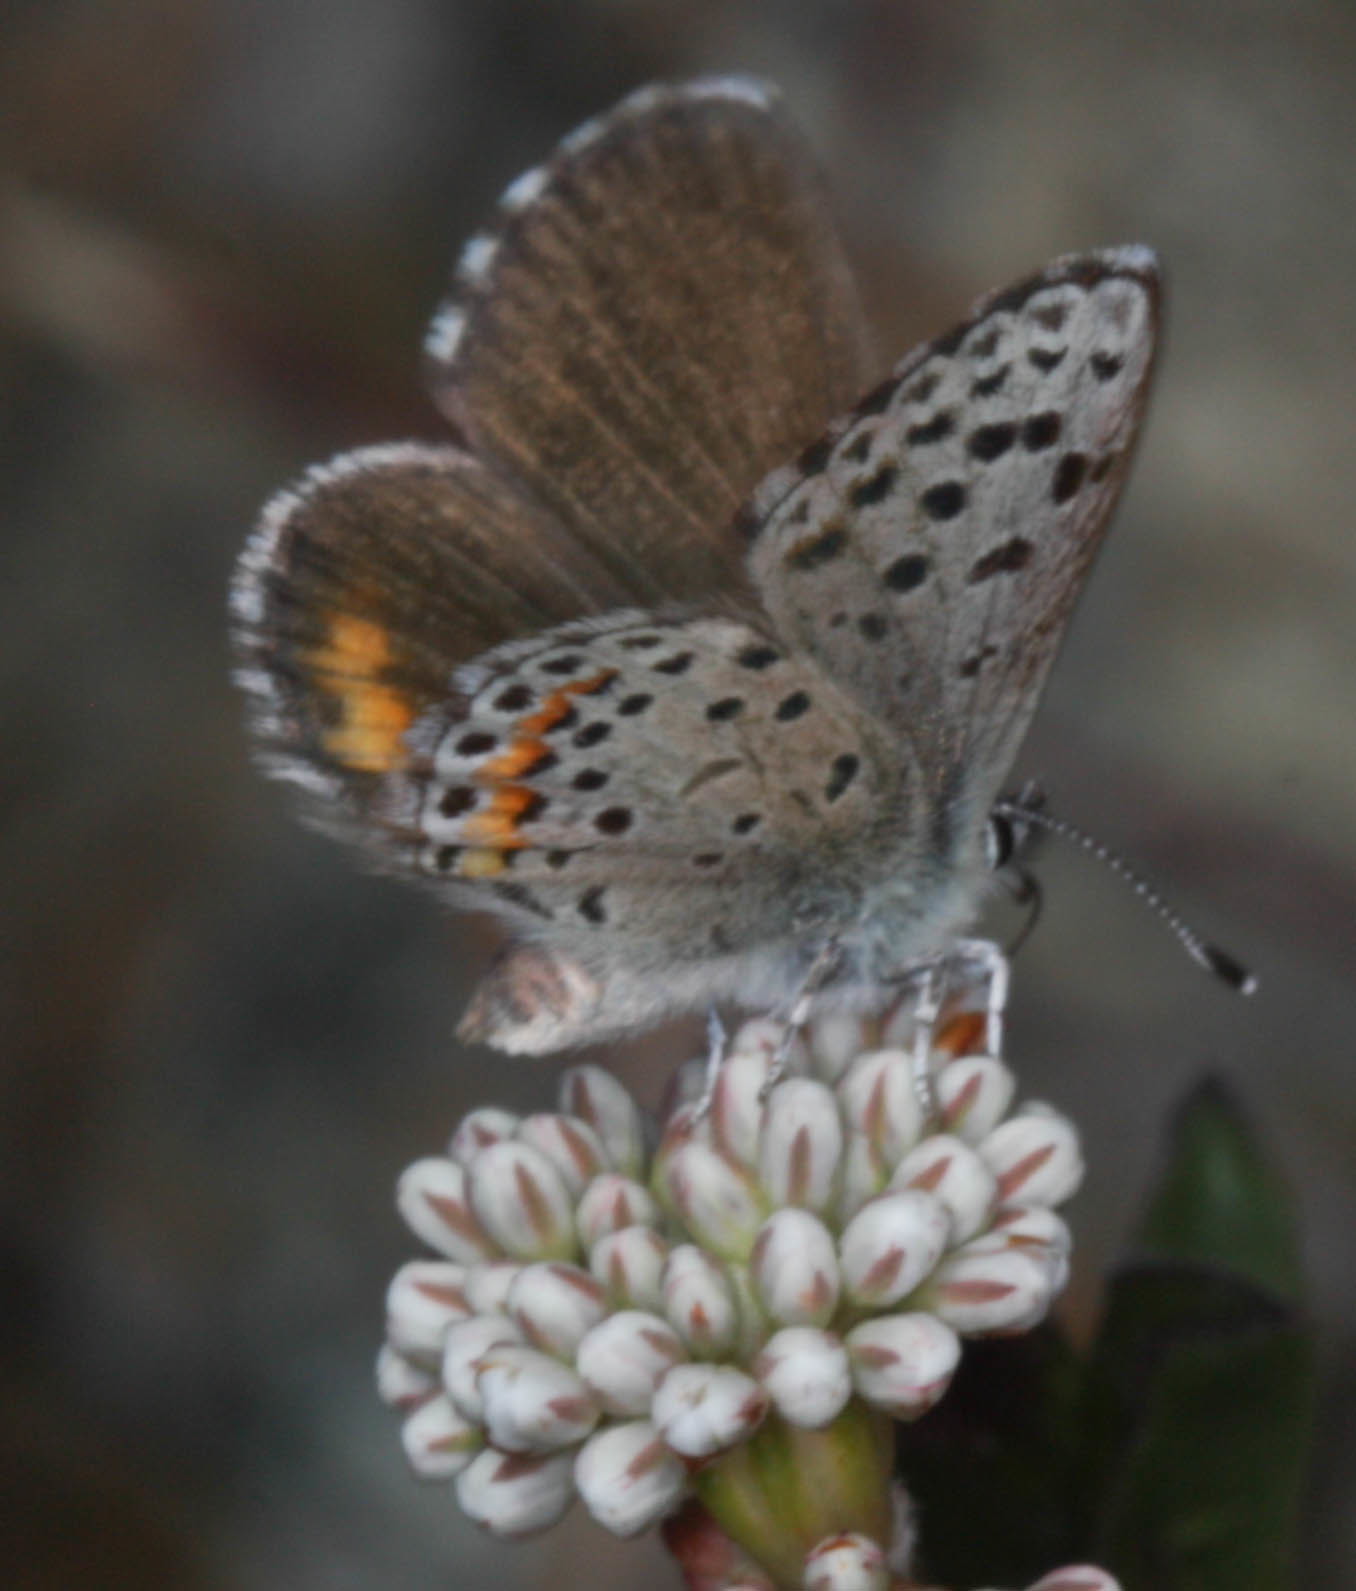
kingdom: Animalia
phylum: Arthropoda
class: Insecta
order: Lepidoptera
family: Lycaenidae
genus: Euphilotes
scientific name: Euphilotes enoptes
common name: Dotted blue
